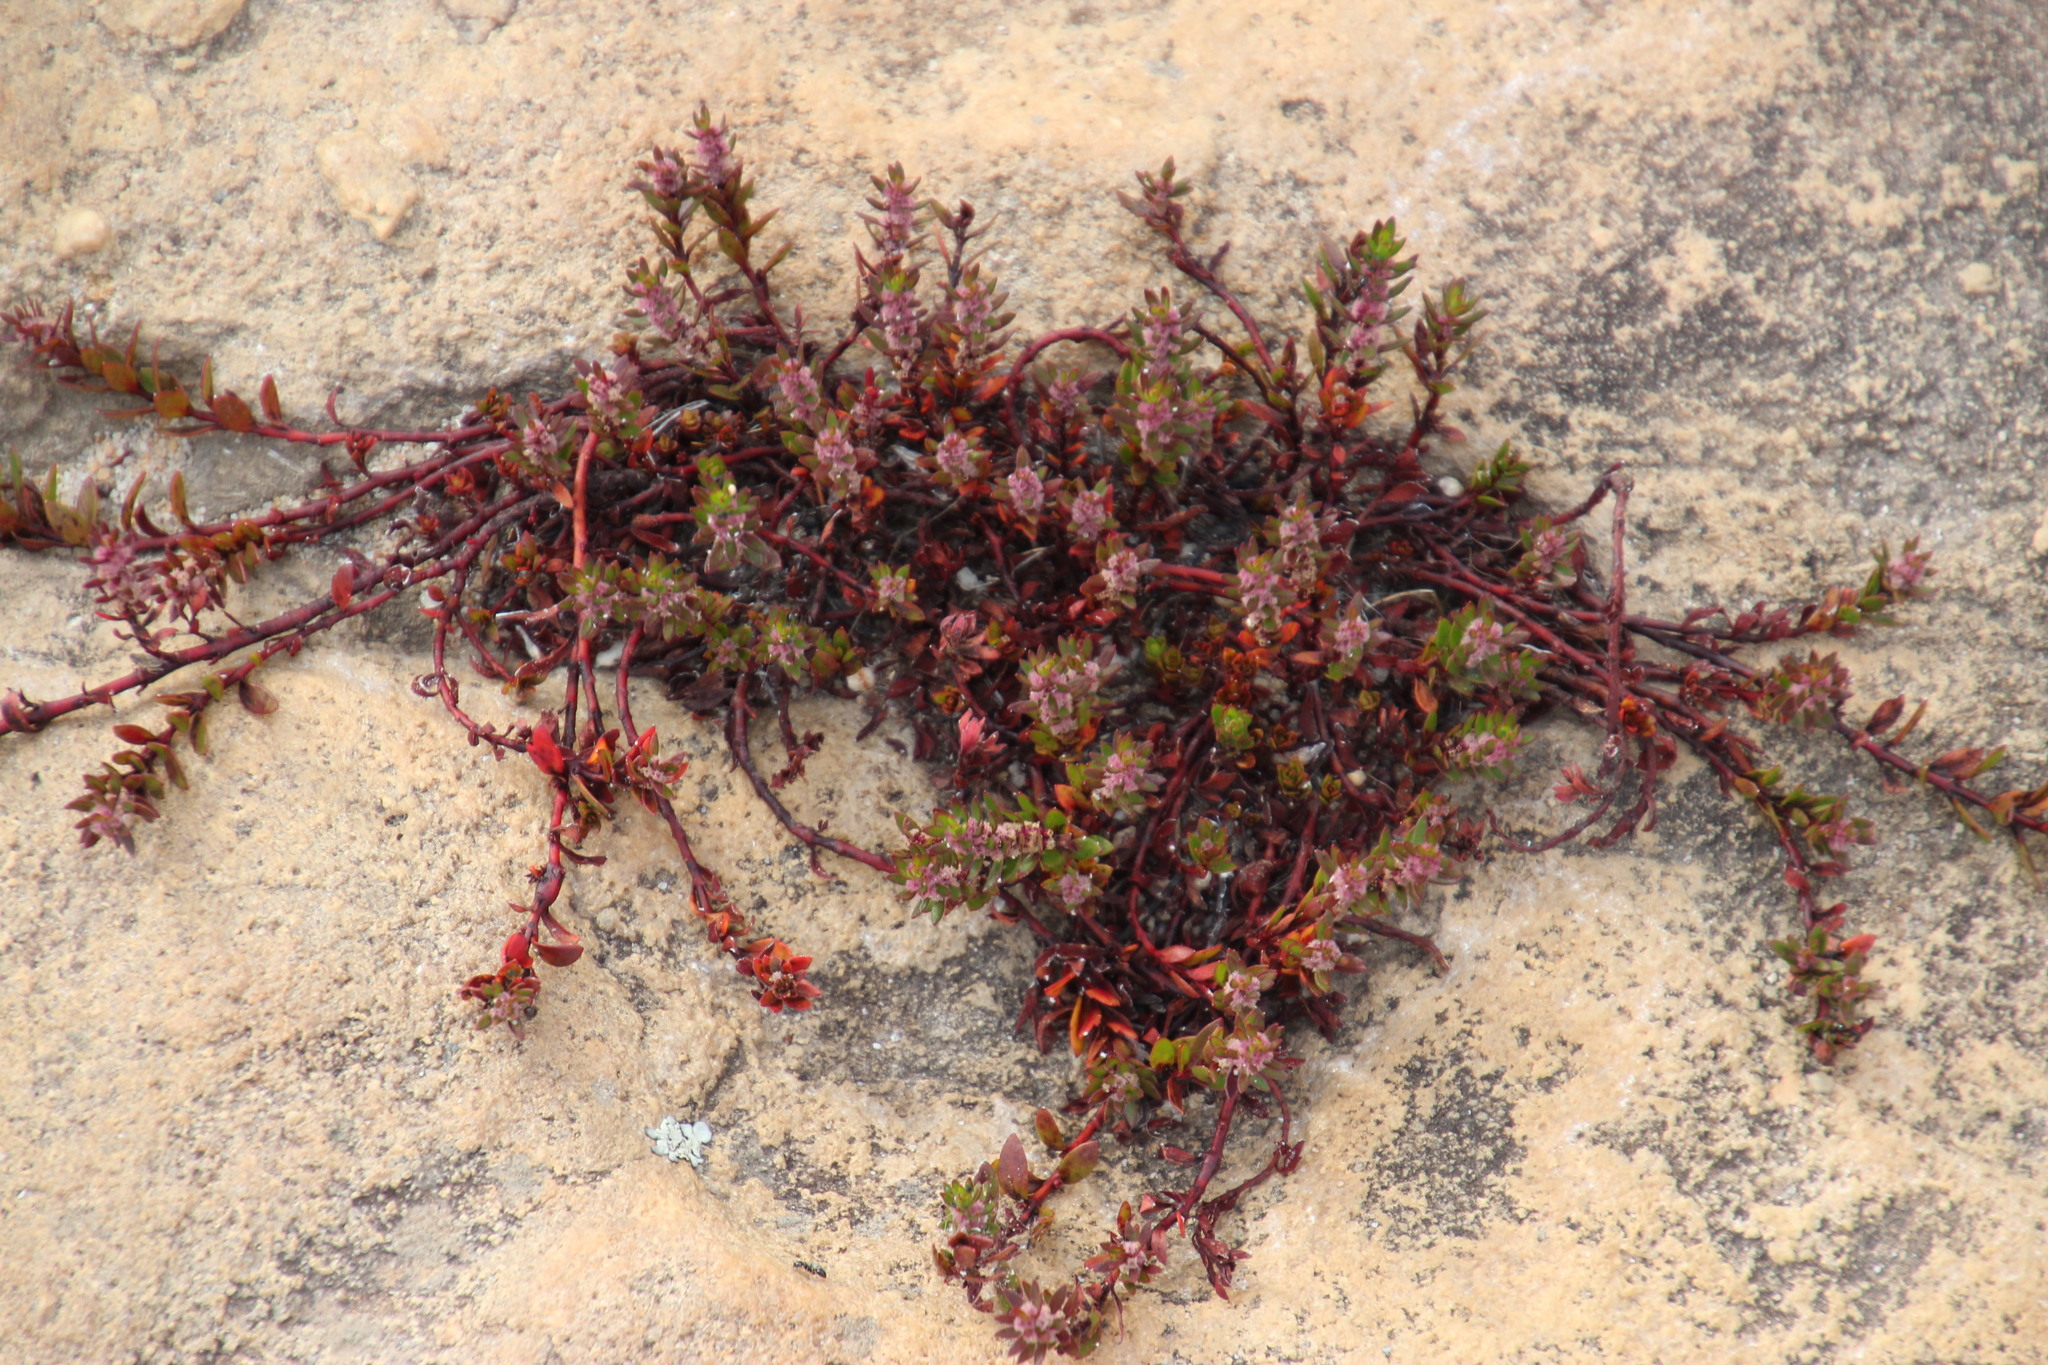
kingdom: Plantae
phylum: Tracheophyta
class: Magnoliopsida
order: Saxifragales
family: Haloragaceae
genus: Laurembergia
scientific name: Laurembergia repens
